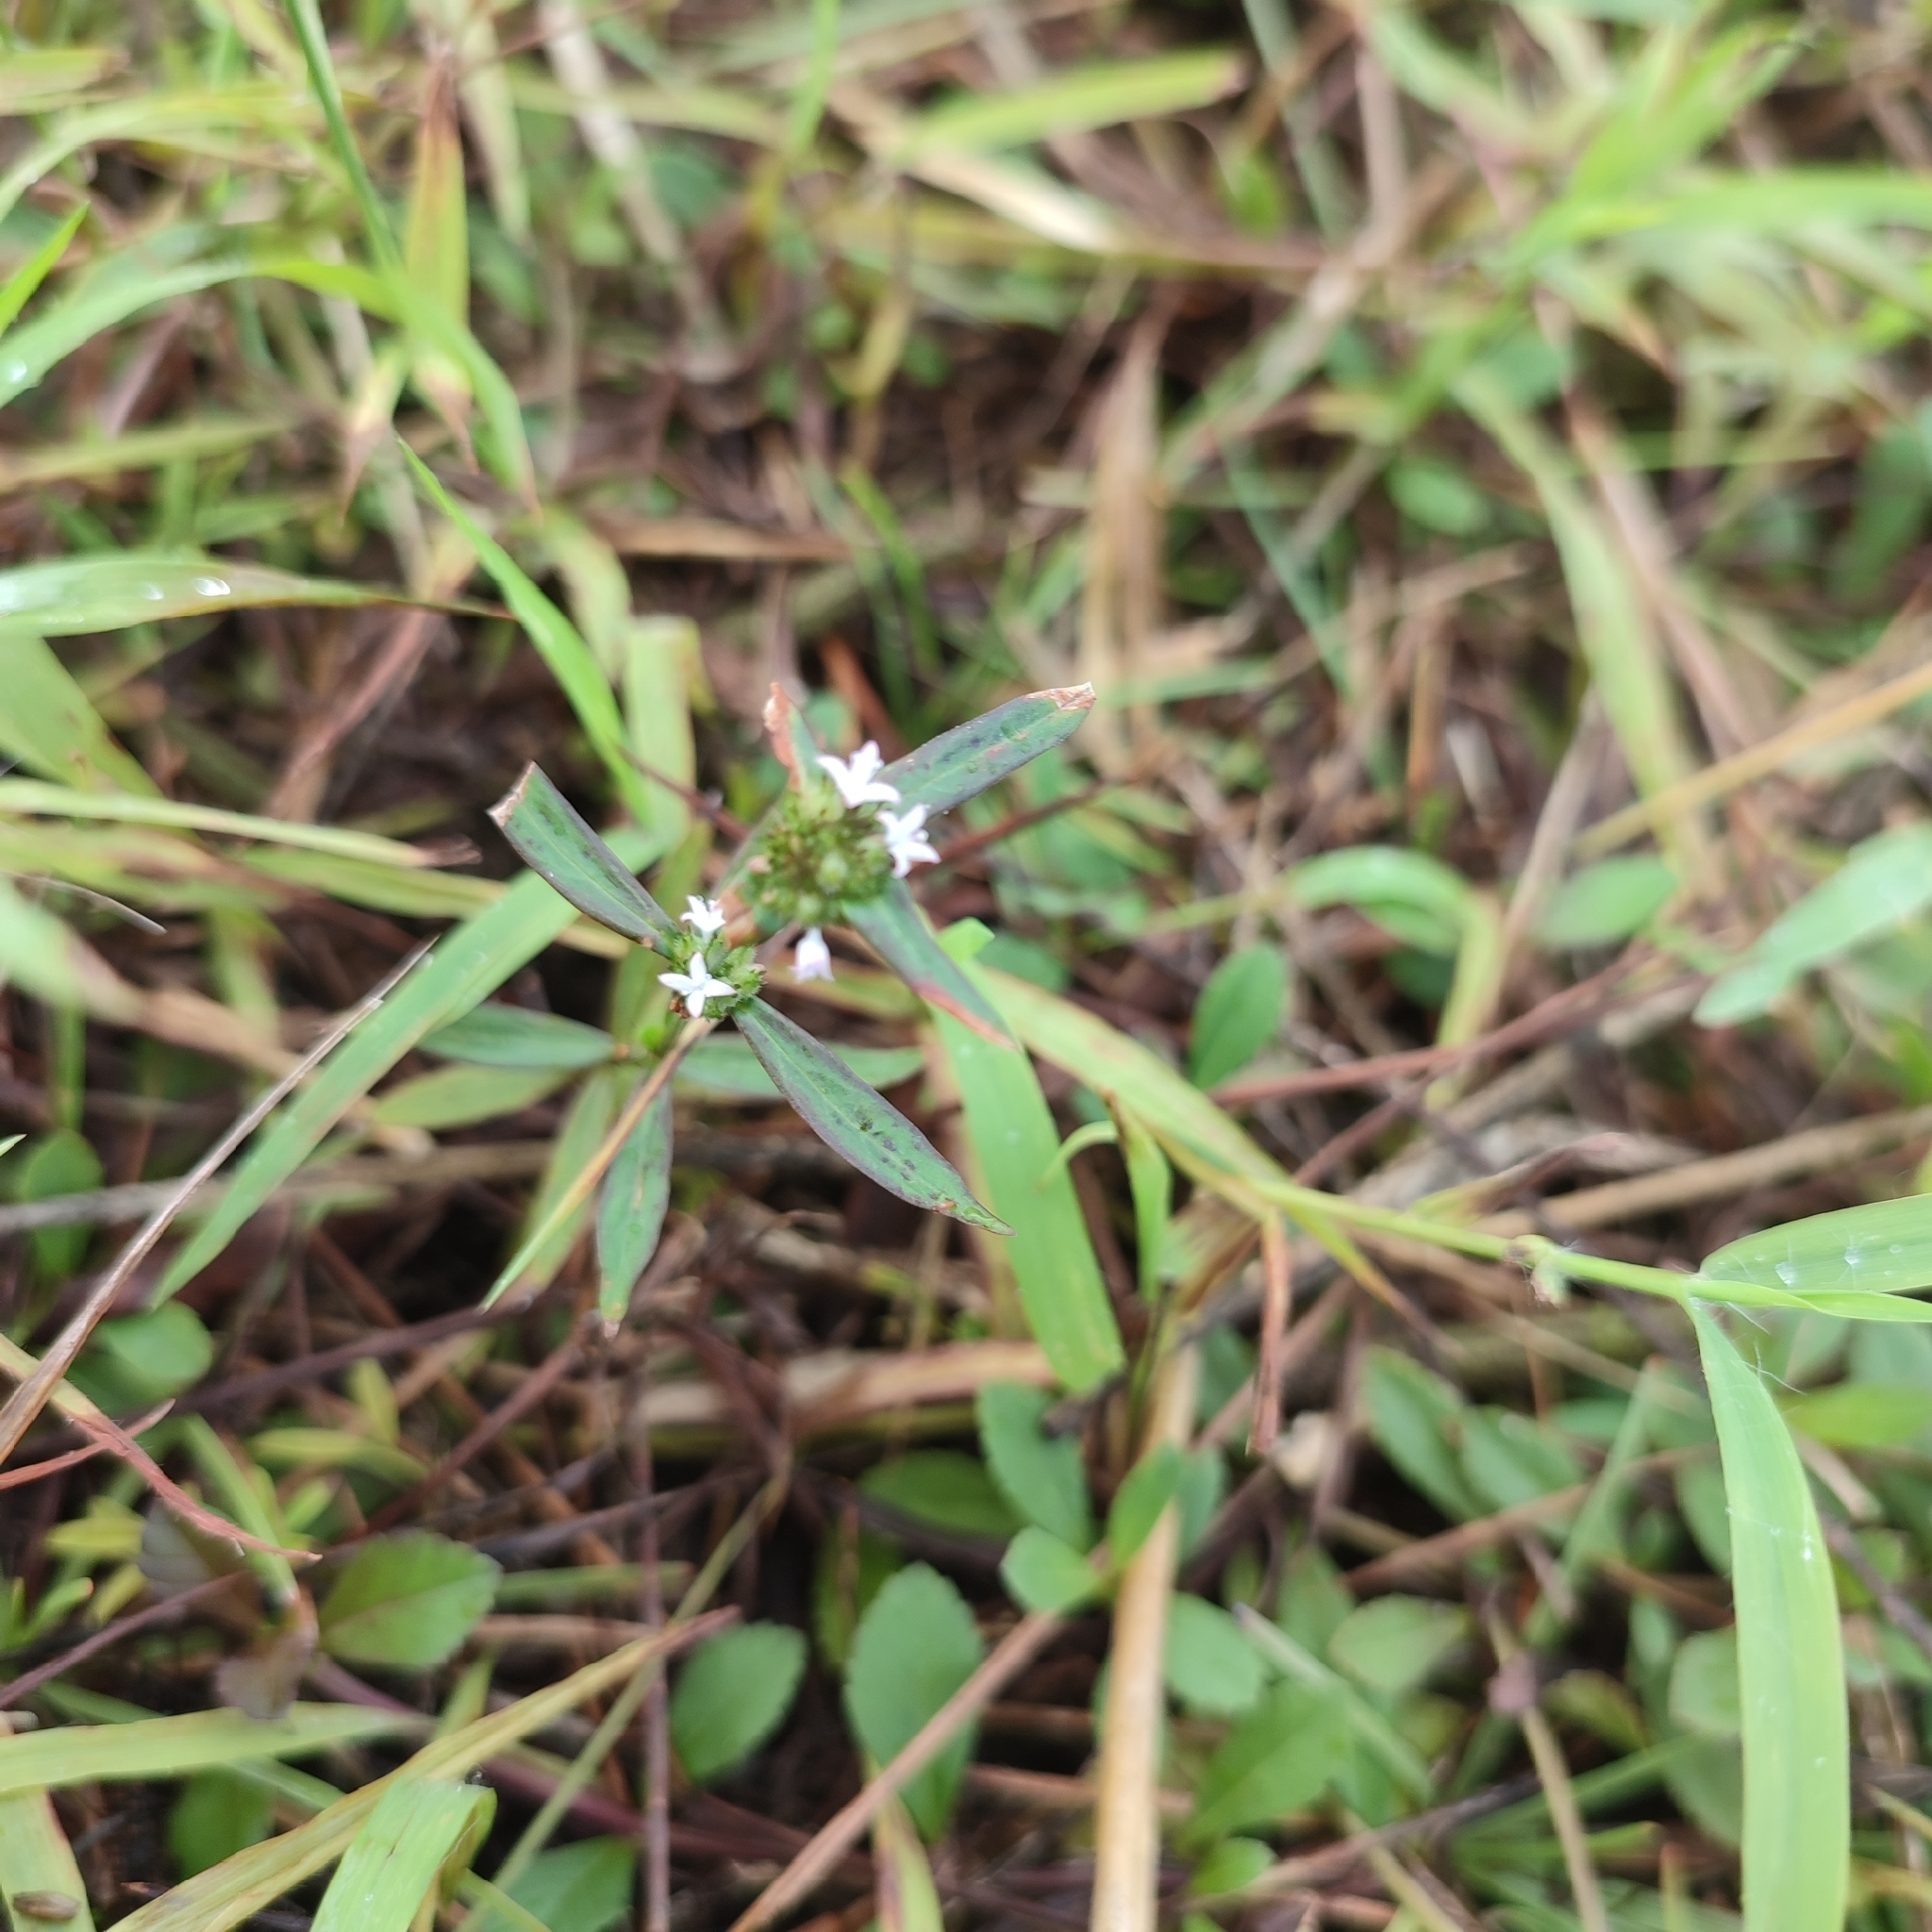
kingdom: Plantae
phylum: Tracheophyta
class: Magnoliopsida
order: Gentianales
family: Rubiaceae
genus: Spermacoce
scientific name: Spermacoce remota
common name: Woodland false buttonweed
